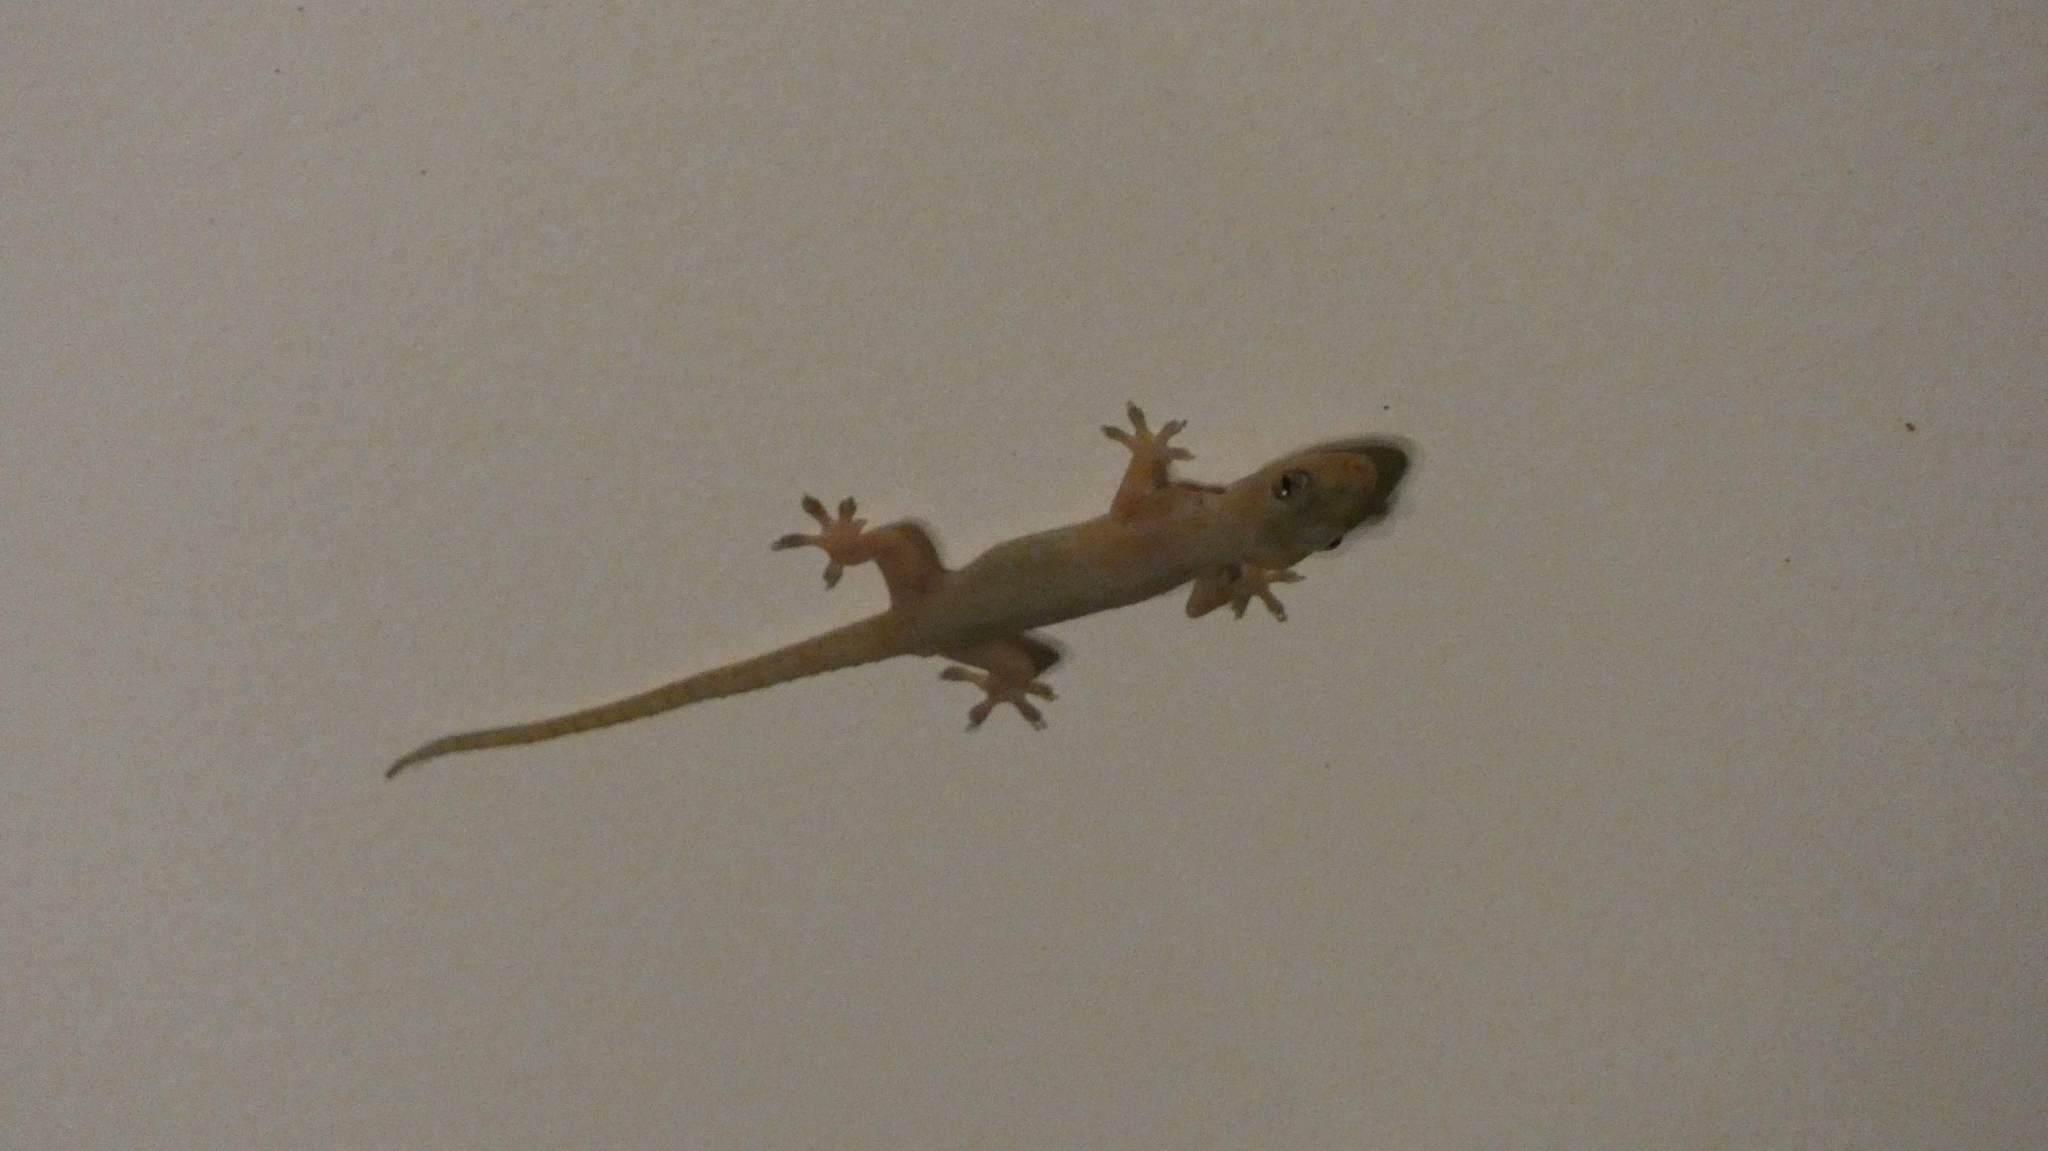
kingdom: Animalia
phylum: Chordata
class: Squamata
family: Gekkonidae
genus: Hemidactylus
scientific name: Hemidactylus frenatus
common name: Common house gecko
